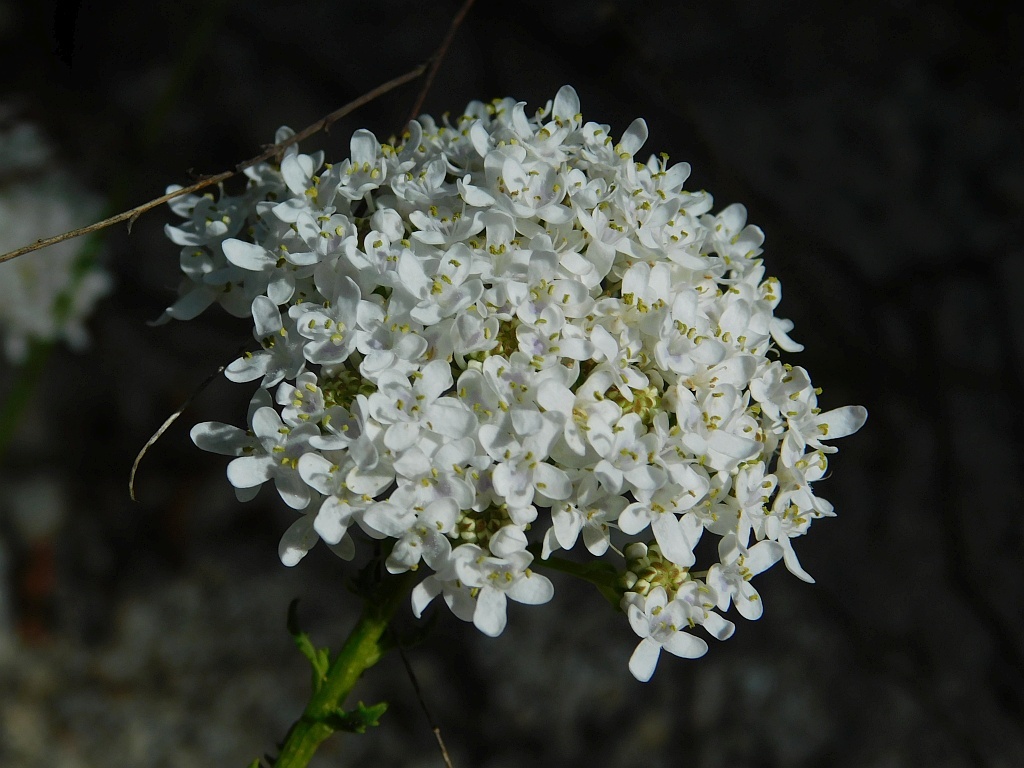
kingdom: Plantae
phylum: Tracheophyta
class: Magnoliopsida
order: Lamiales
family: Scrophulariaceae
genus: Pseudoselago
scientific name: Pseudoselago spuria
